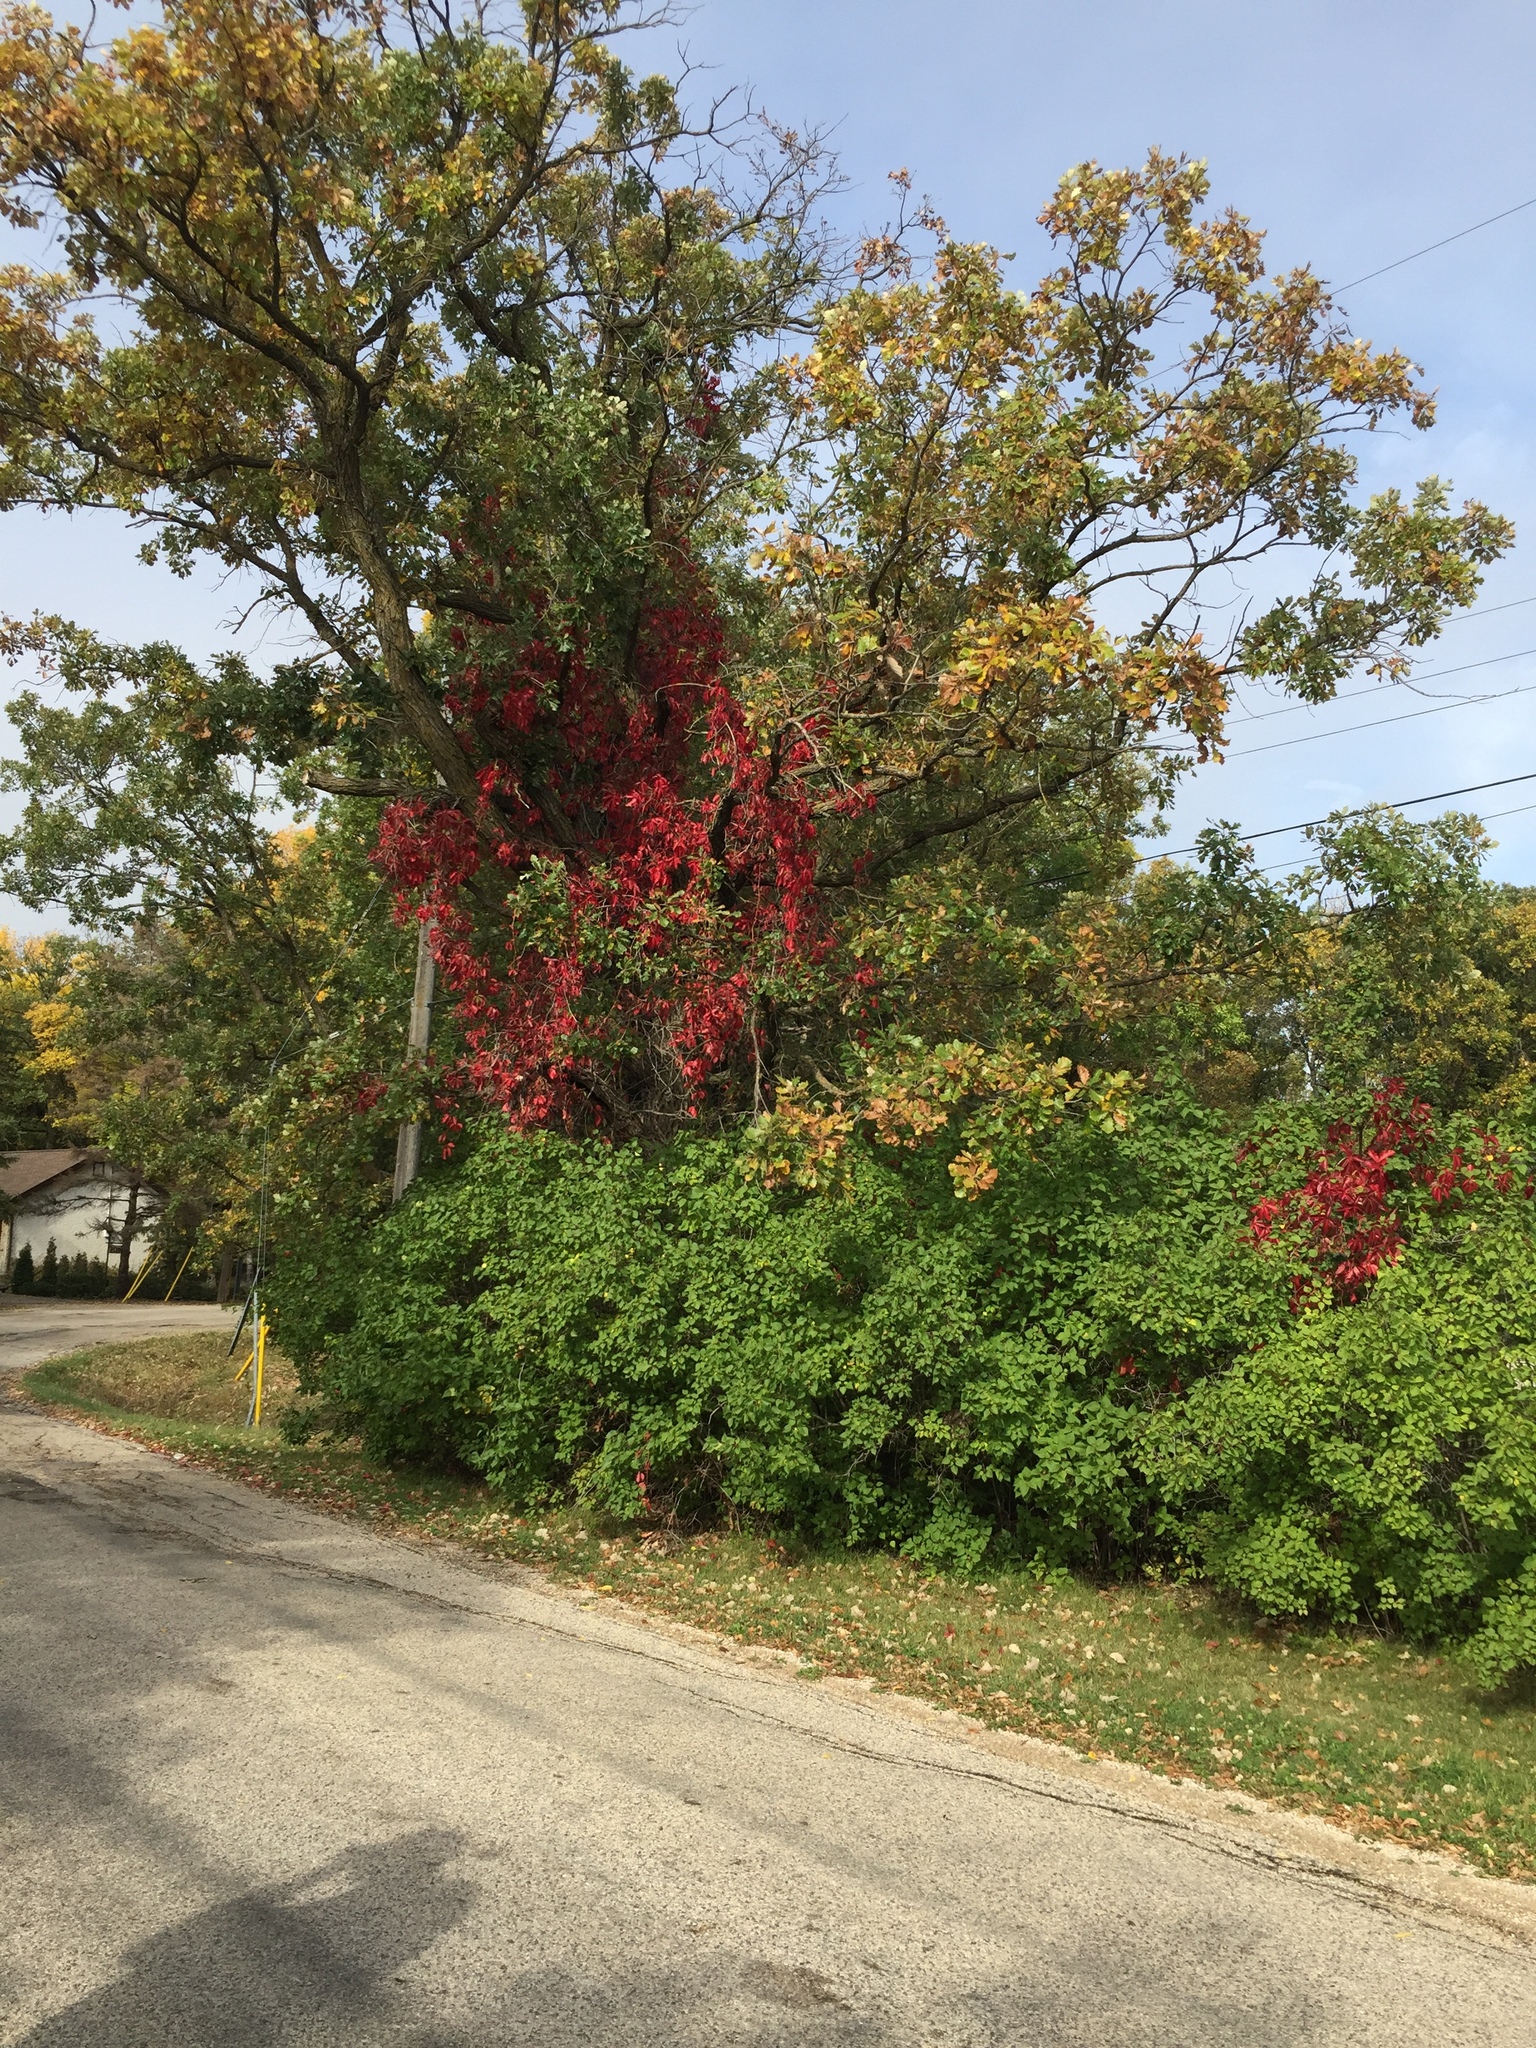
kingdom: Plantae
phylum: Tracheophyta
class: Magnoliopsida
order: Vitales
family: Vitaceae
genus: Parthenocissus
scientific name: Parthenocissus quinquefolia
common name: Virginia-creeper
